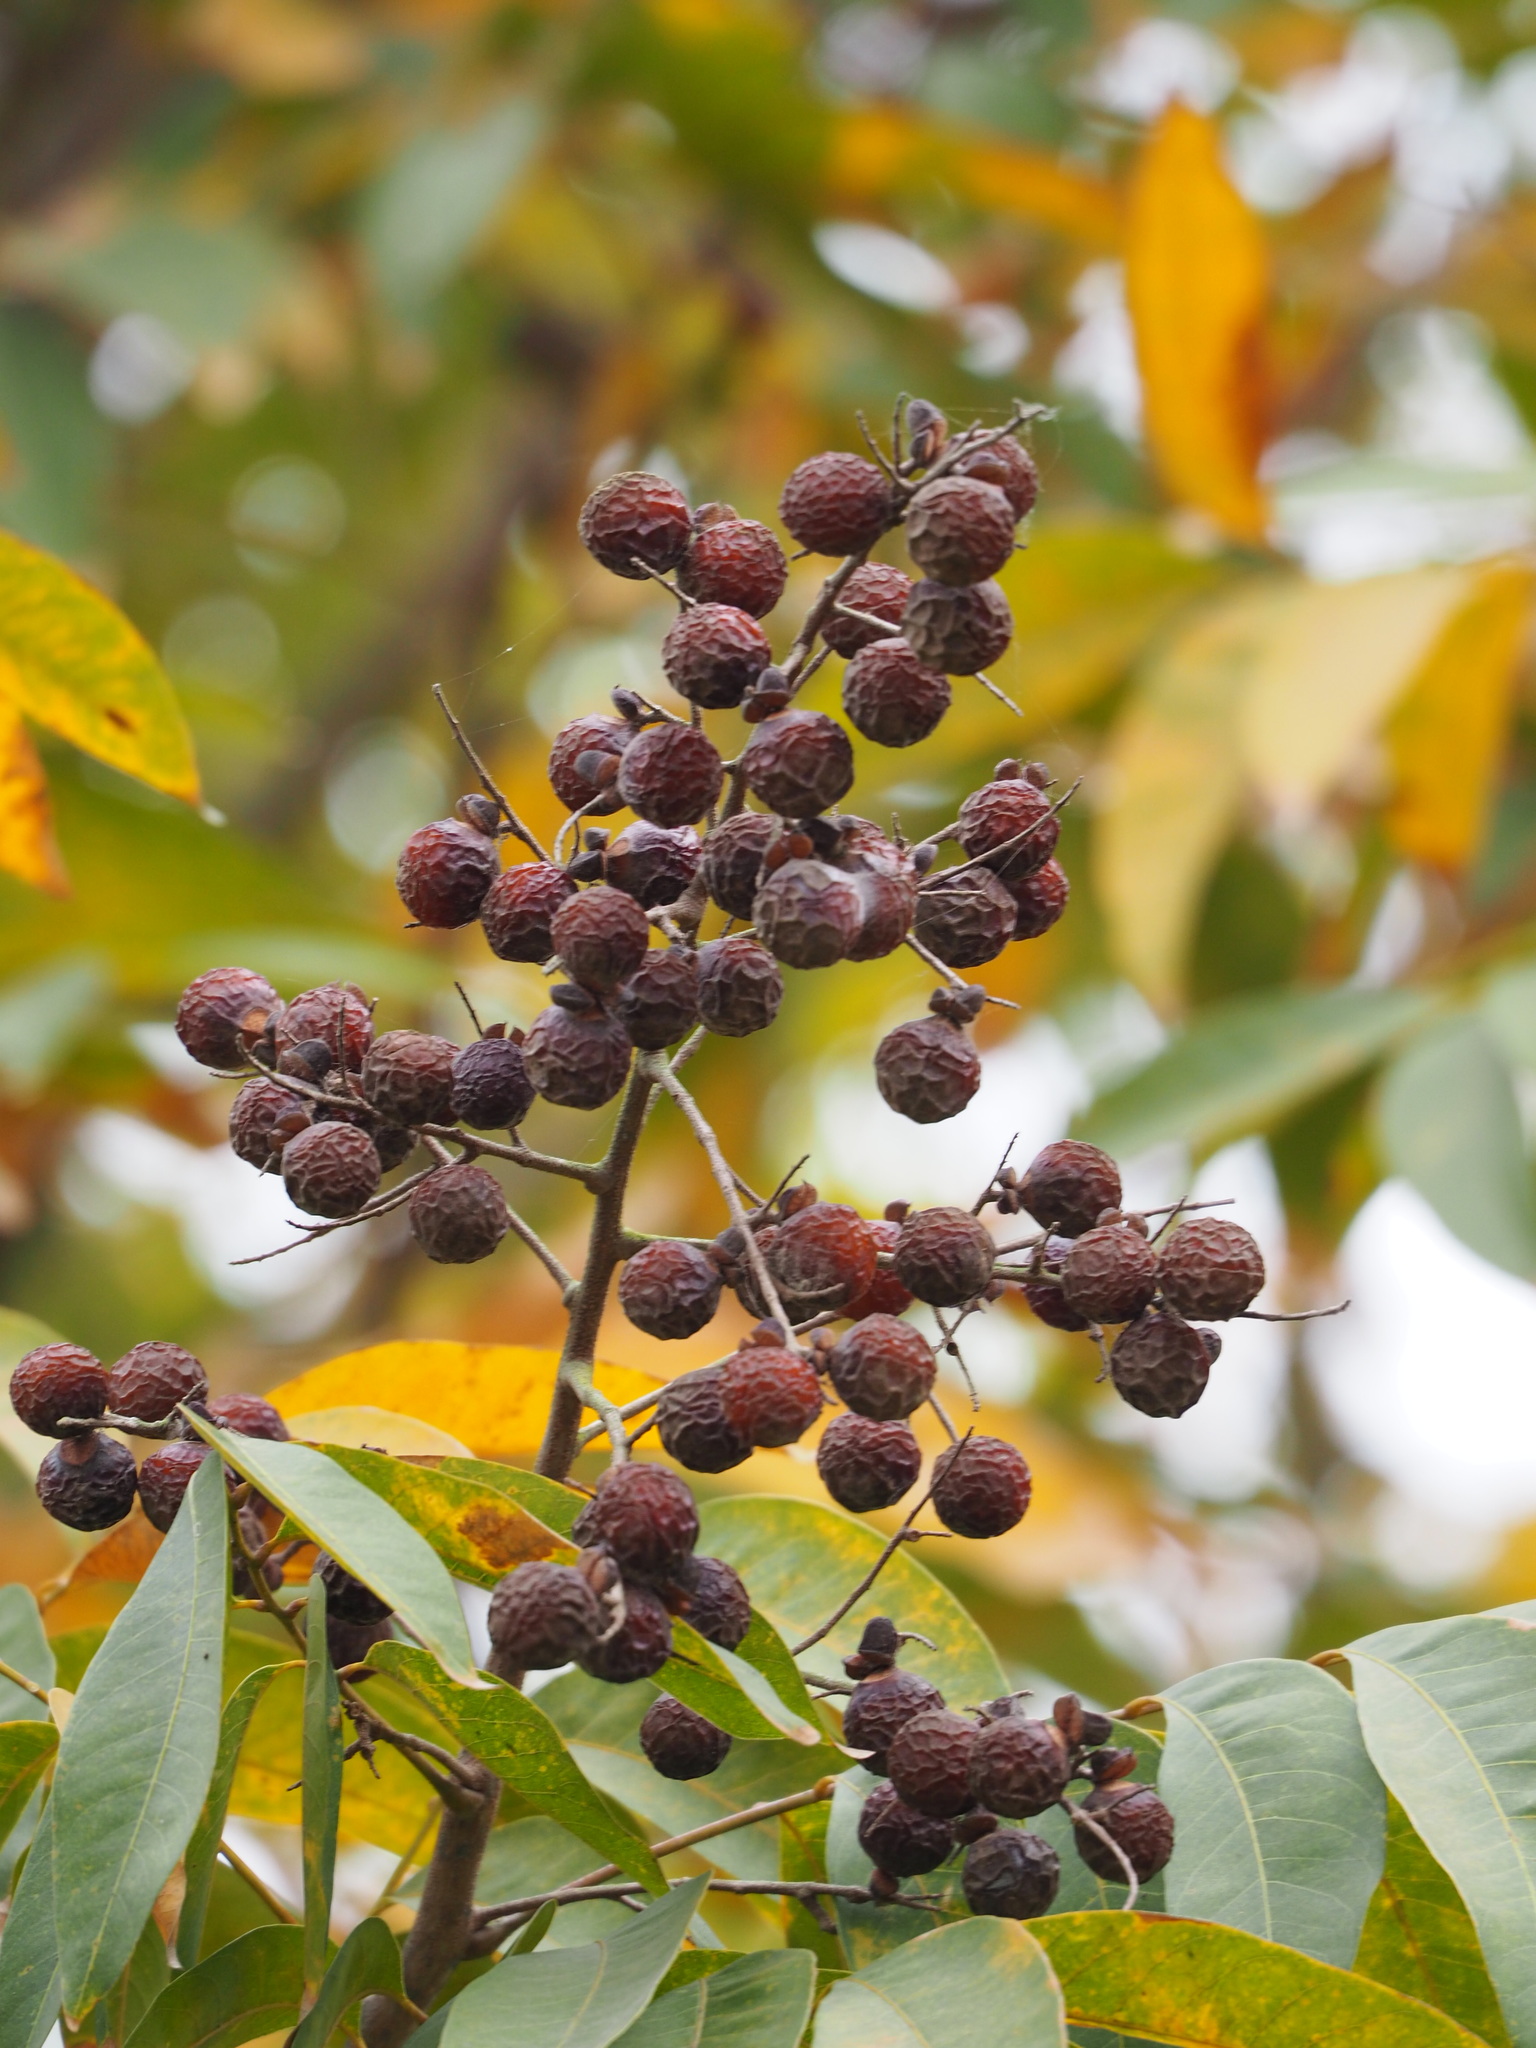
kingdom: Plantae
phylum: Tracheophyta
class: Magnoliopsida
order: Sapindales
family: Sapindaceae
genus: Sapindus
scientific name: Sapindus mukorossi
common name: Chinese soapberry
